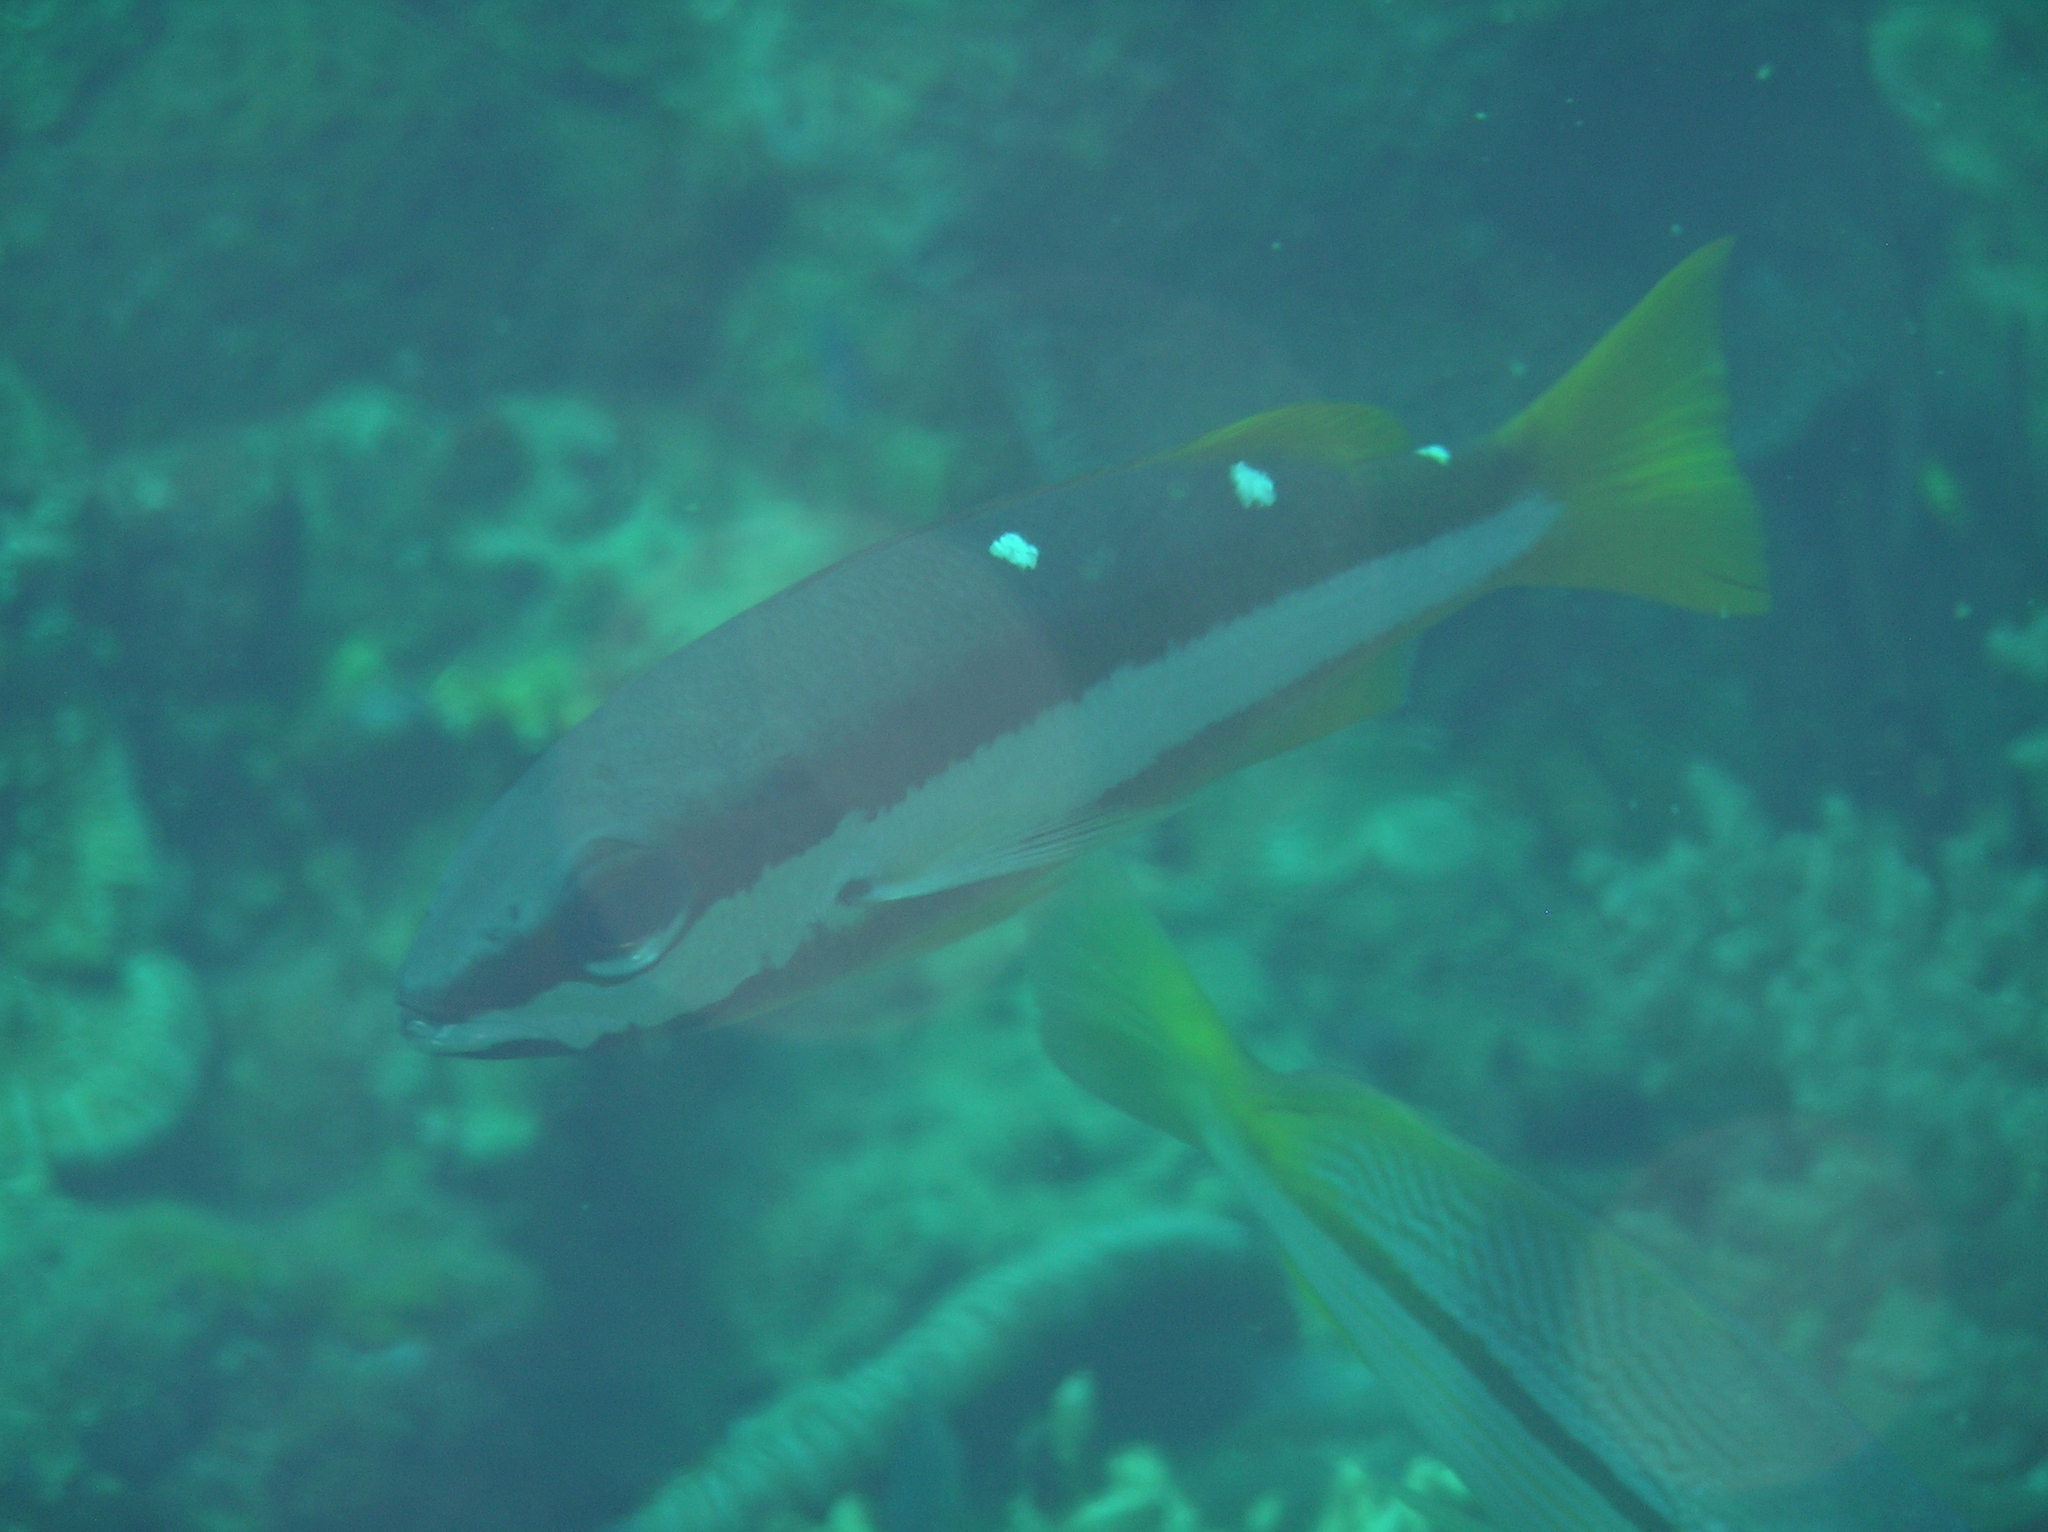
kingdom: Animalia
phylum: Chordata
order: Perciformes
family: Lutjanidae
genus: Lutjanus
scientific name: Lutjanus biguttatus
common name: Two-spot snapper
